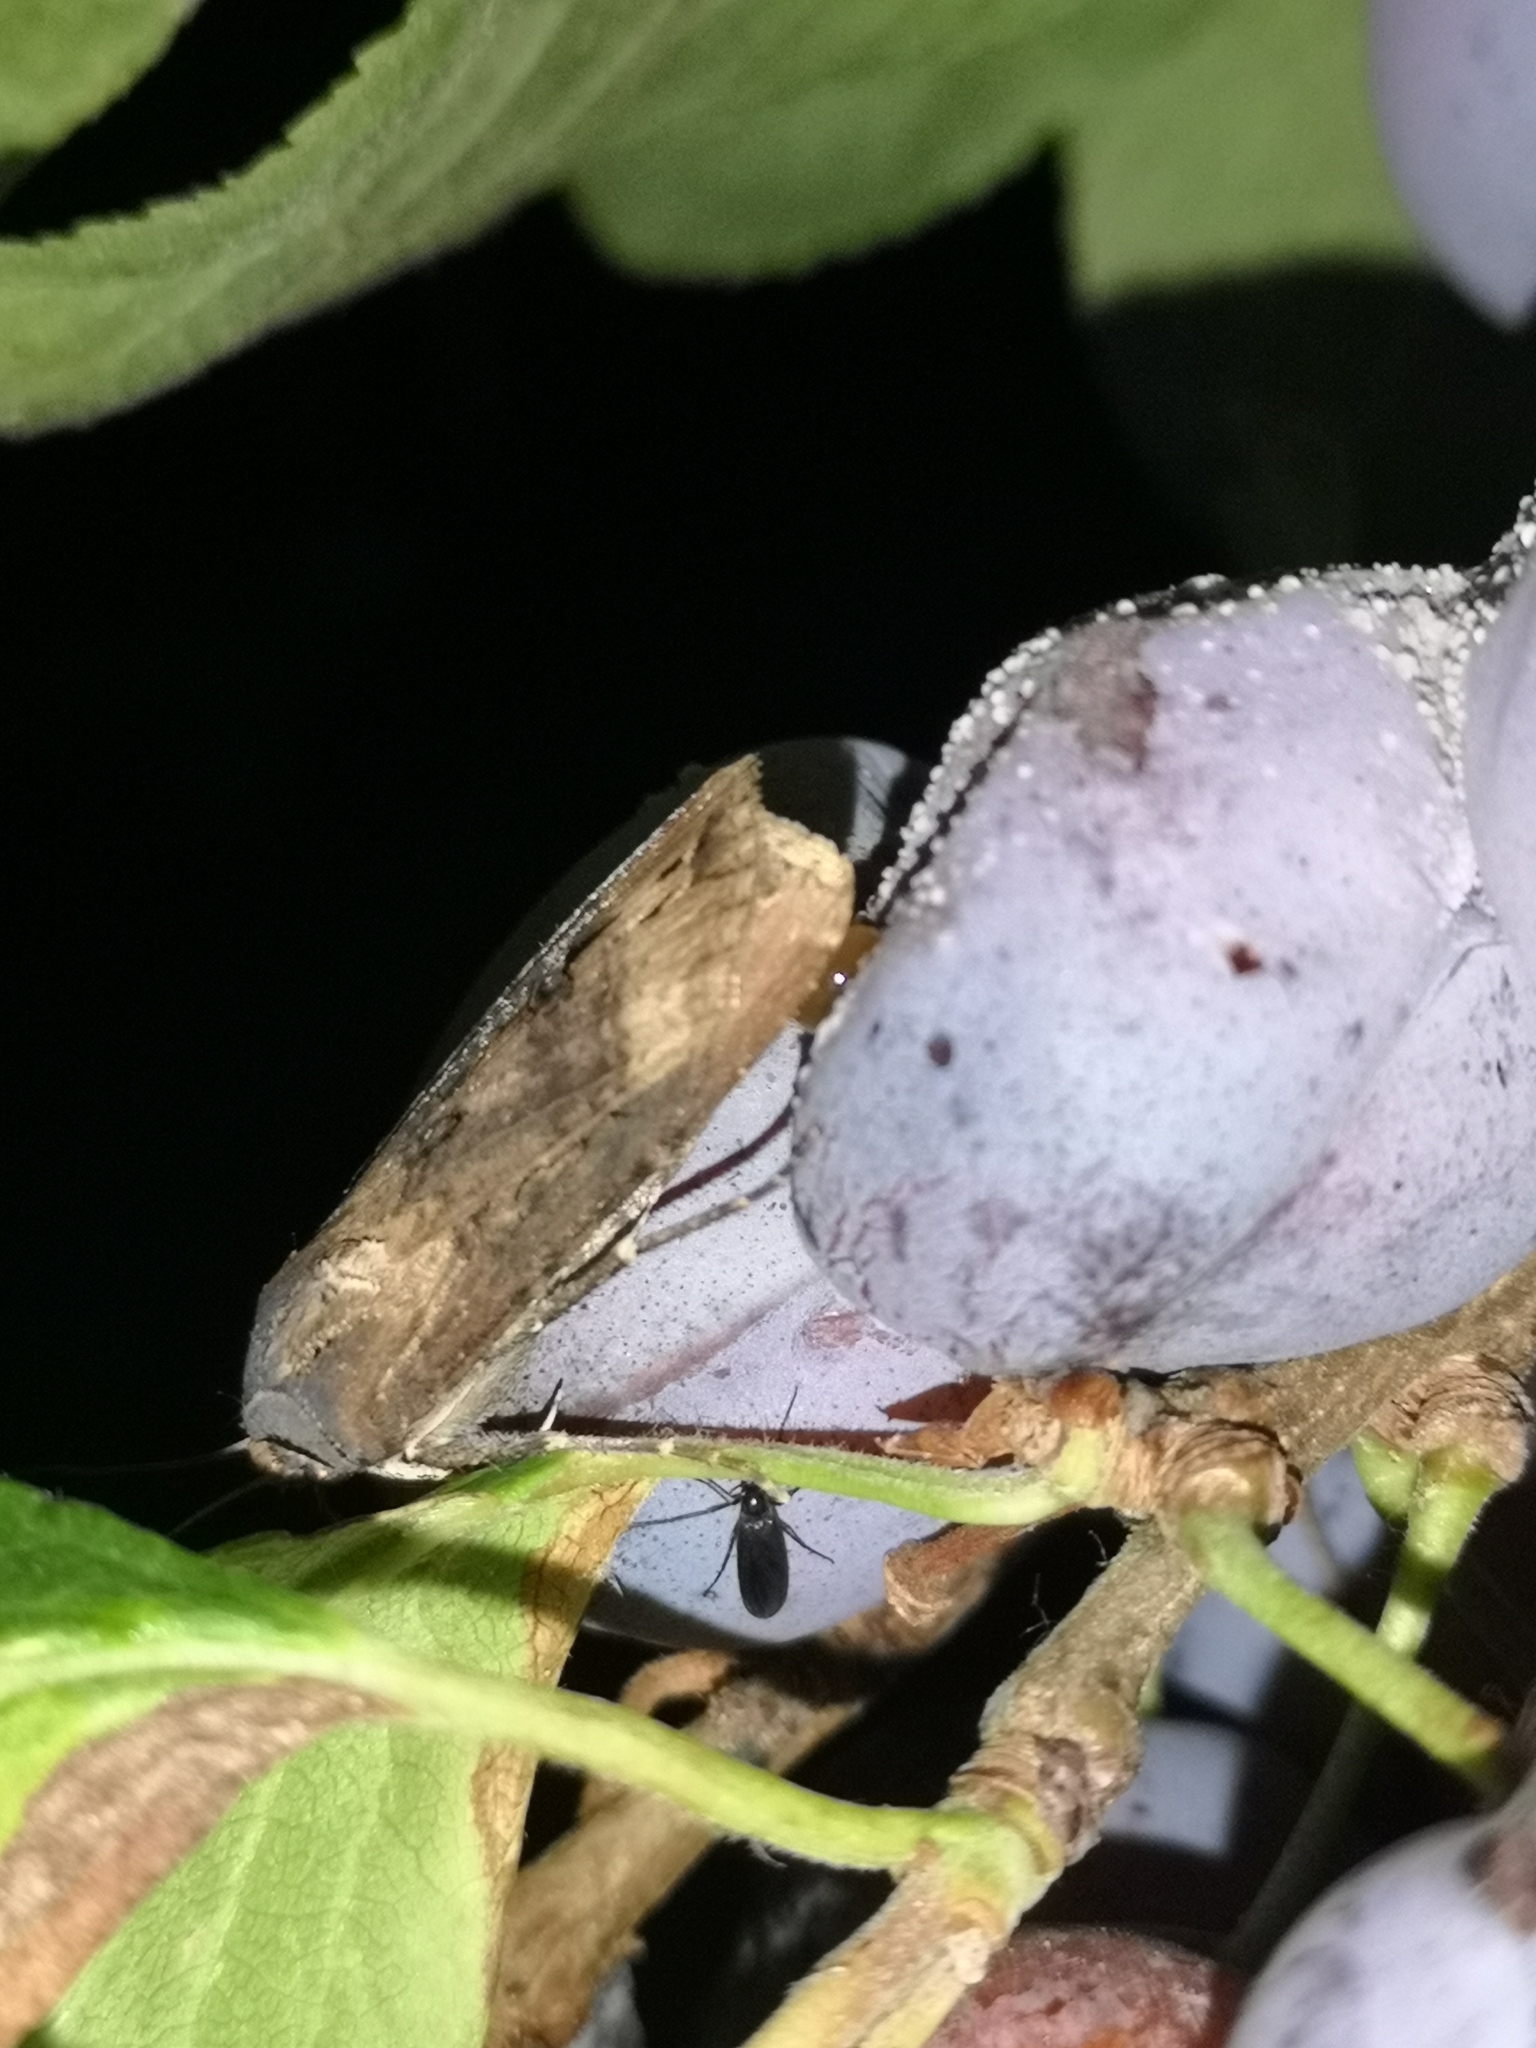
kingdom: Animalia
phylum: Arthropoda
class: Insecta
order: Lepidoptera
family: Noctuidae
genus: Agrotis
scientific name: Agrotis ipsilon
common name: Dark sword-grass
